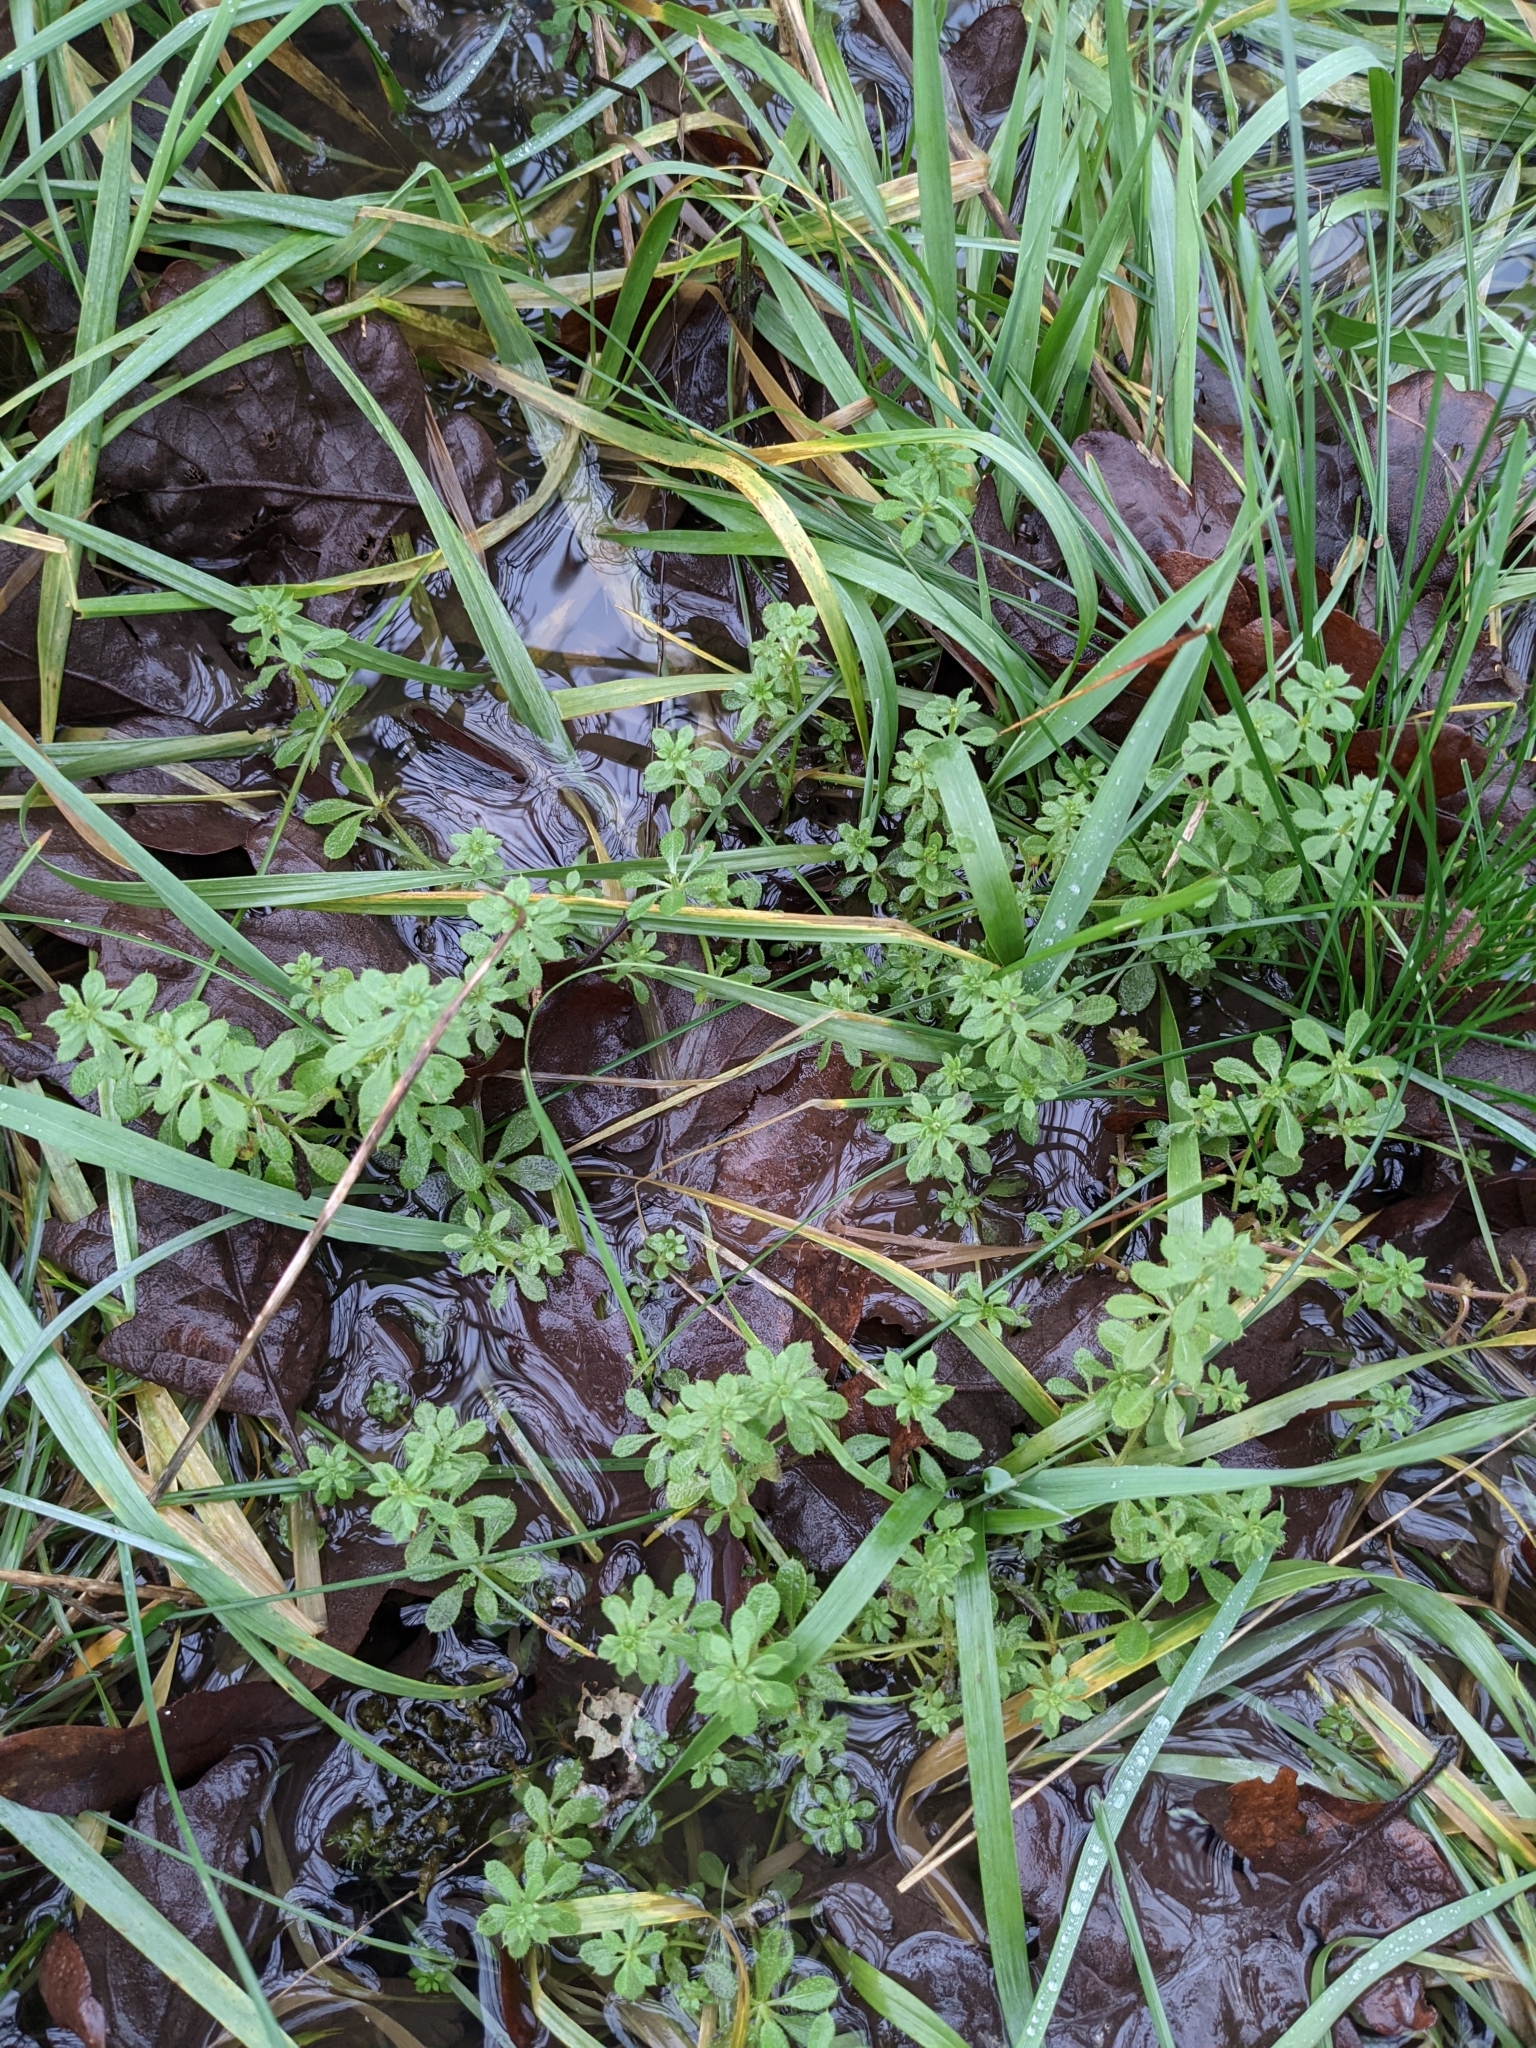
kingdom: Plantae
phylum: Tracheophyta
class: Magnoliopsida
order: Gentianales
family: Rubiaceae
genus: Galium
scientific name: Galium aparine
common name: Cleavers
